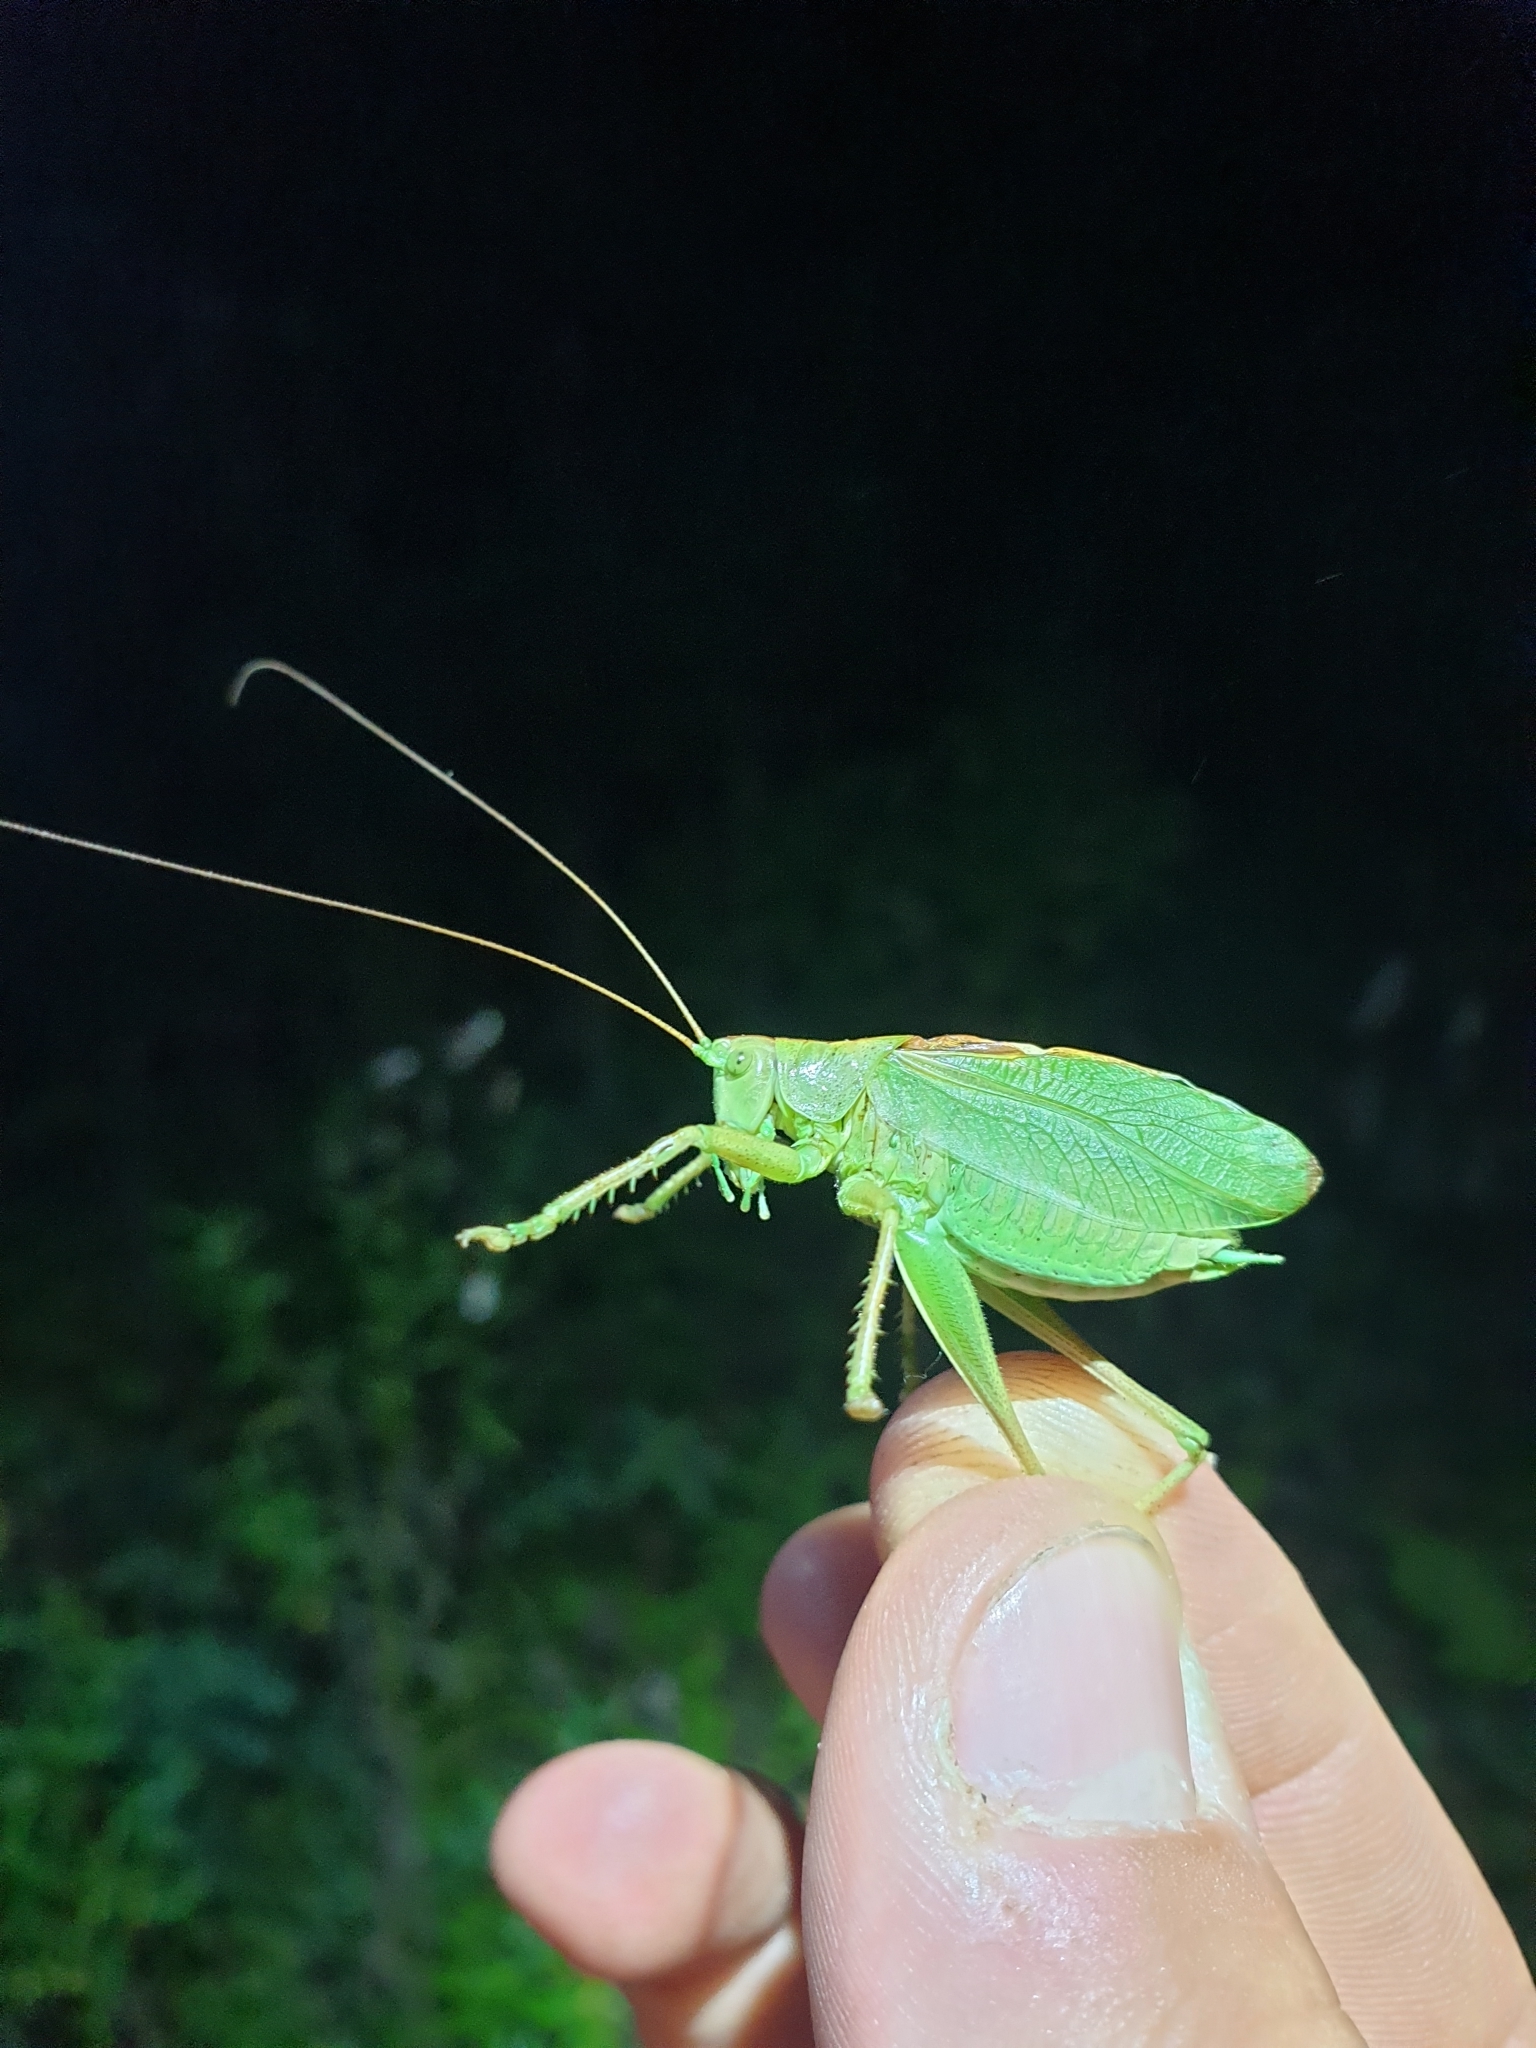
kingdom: Animalia
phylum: Arthropoda
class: Insecta
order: Orthoptera
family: Tettigoniidae
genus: Tettigonia
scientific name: Tettigonia cantans
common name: Upland green bush-cricket
